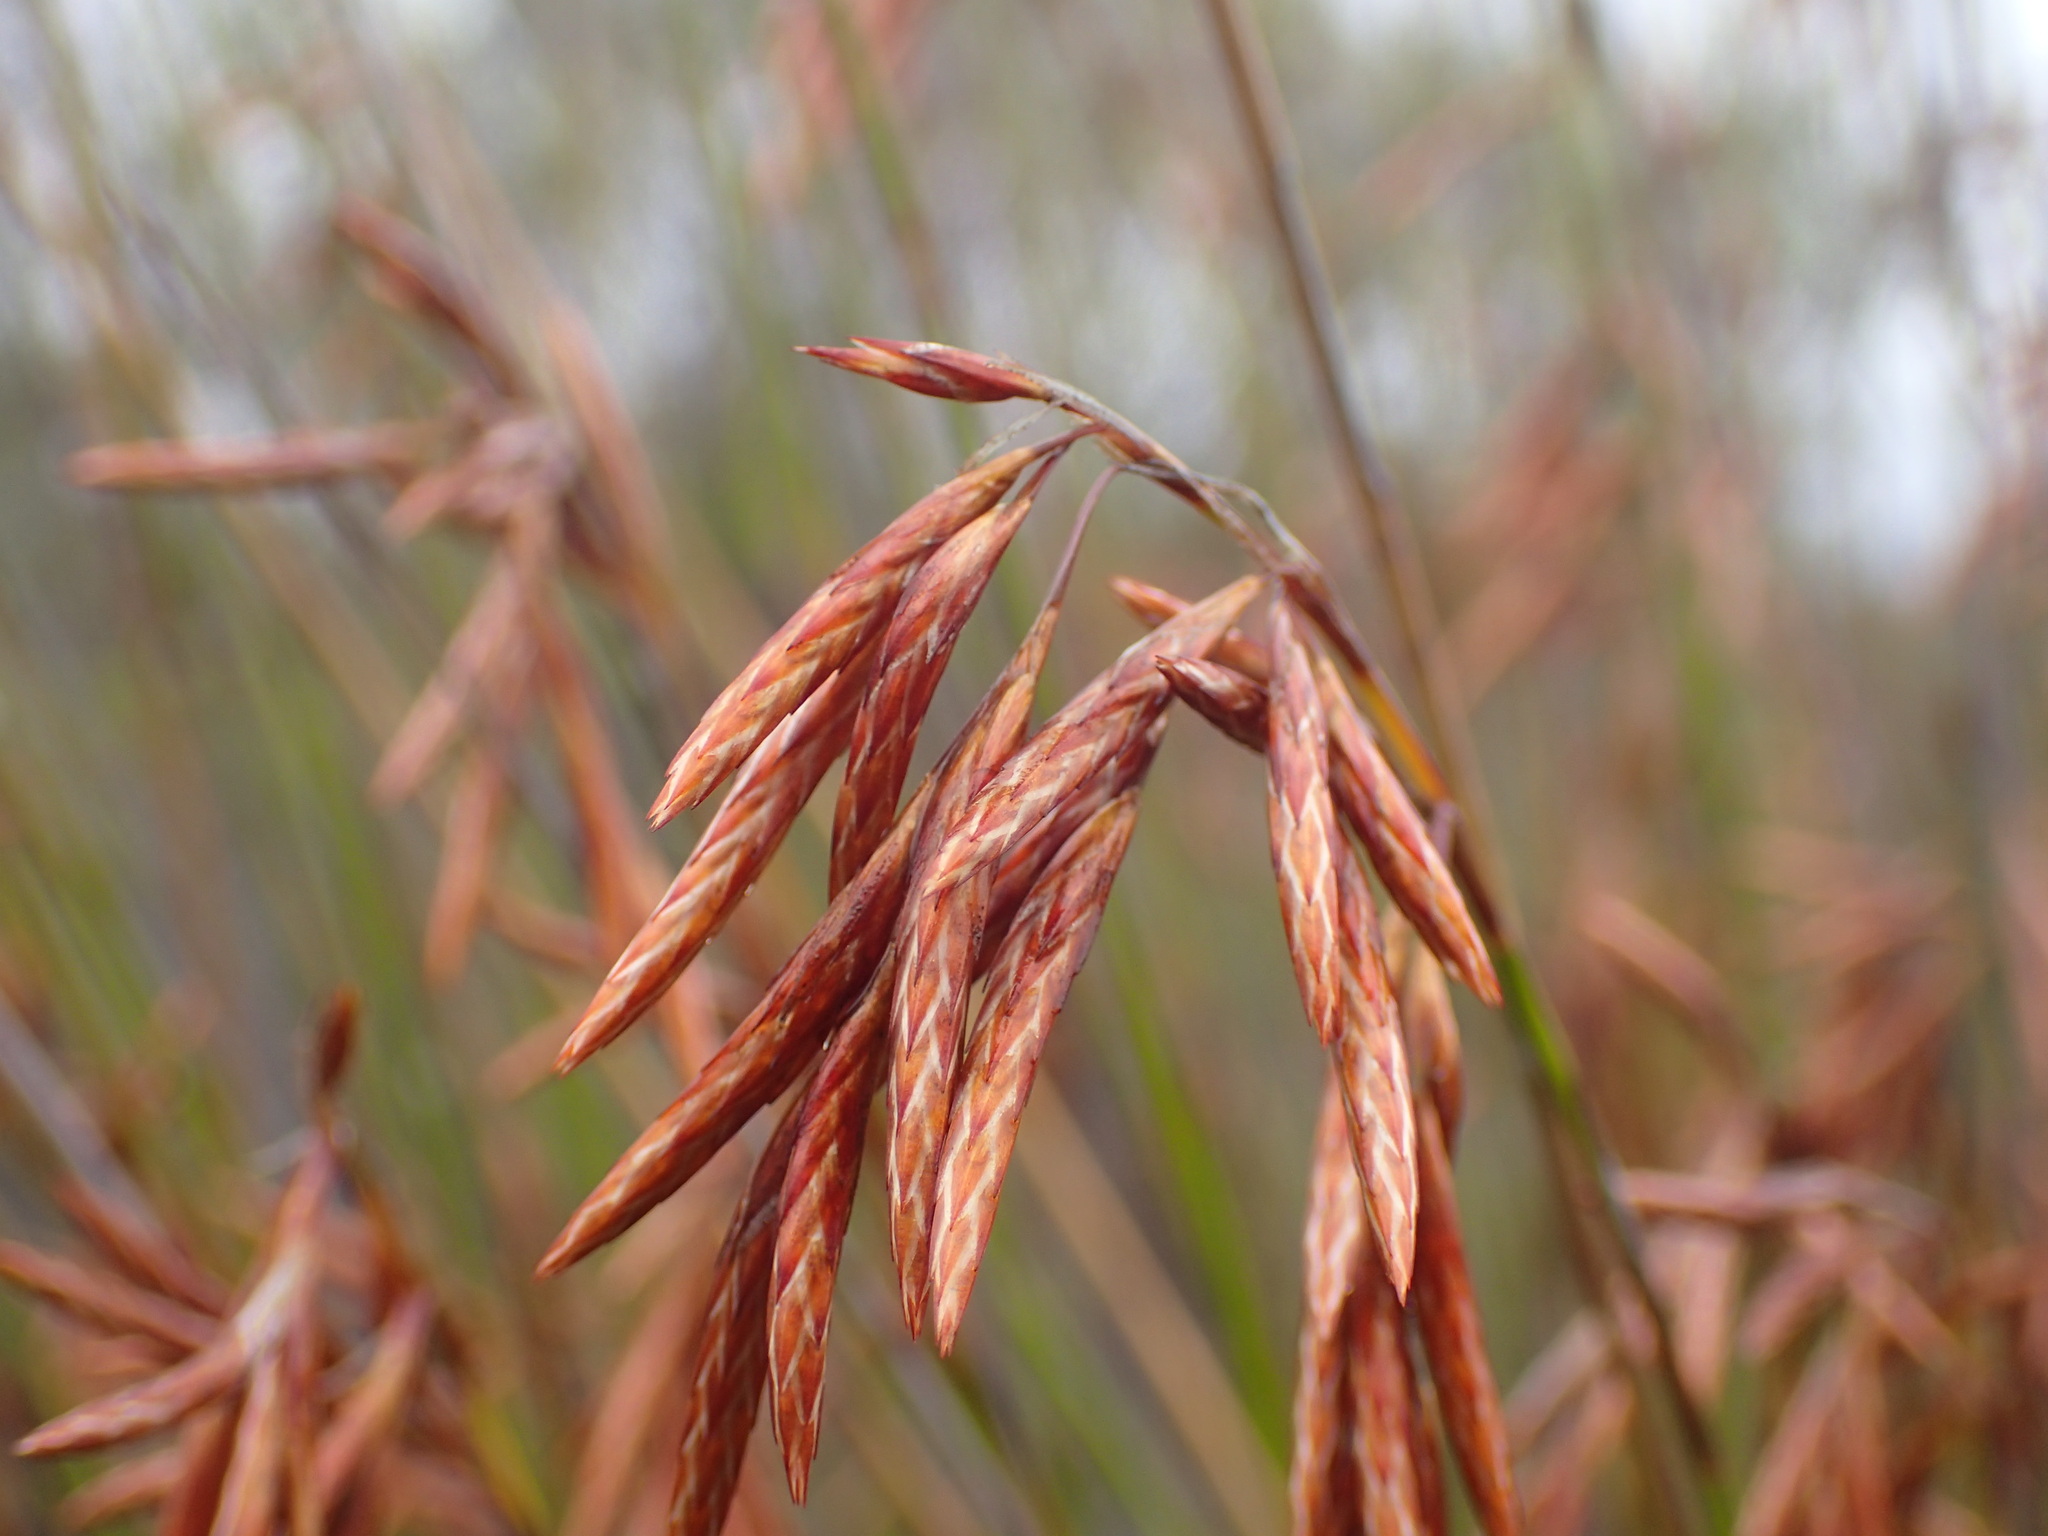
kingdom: Plantae
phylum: Tracheophyta
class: Liliopsida
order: Poales
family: Restionaceae
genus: Thamnochortus
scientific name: Thamnochortus punctatus
